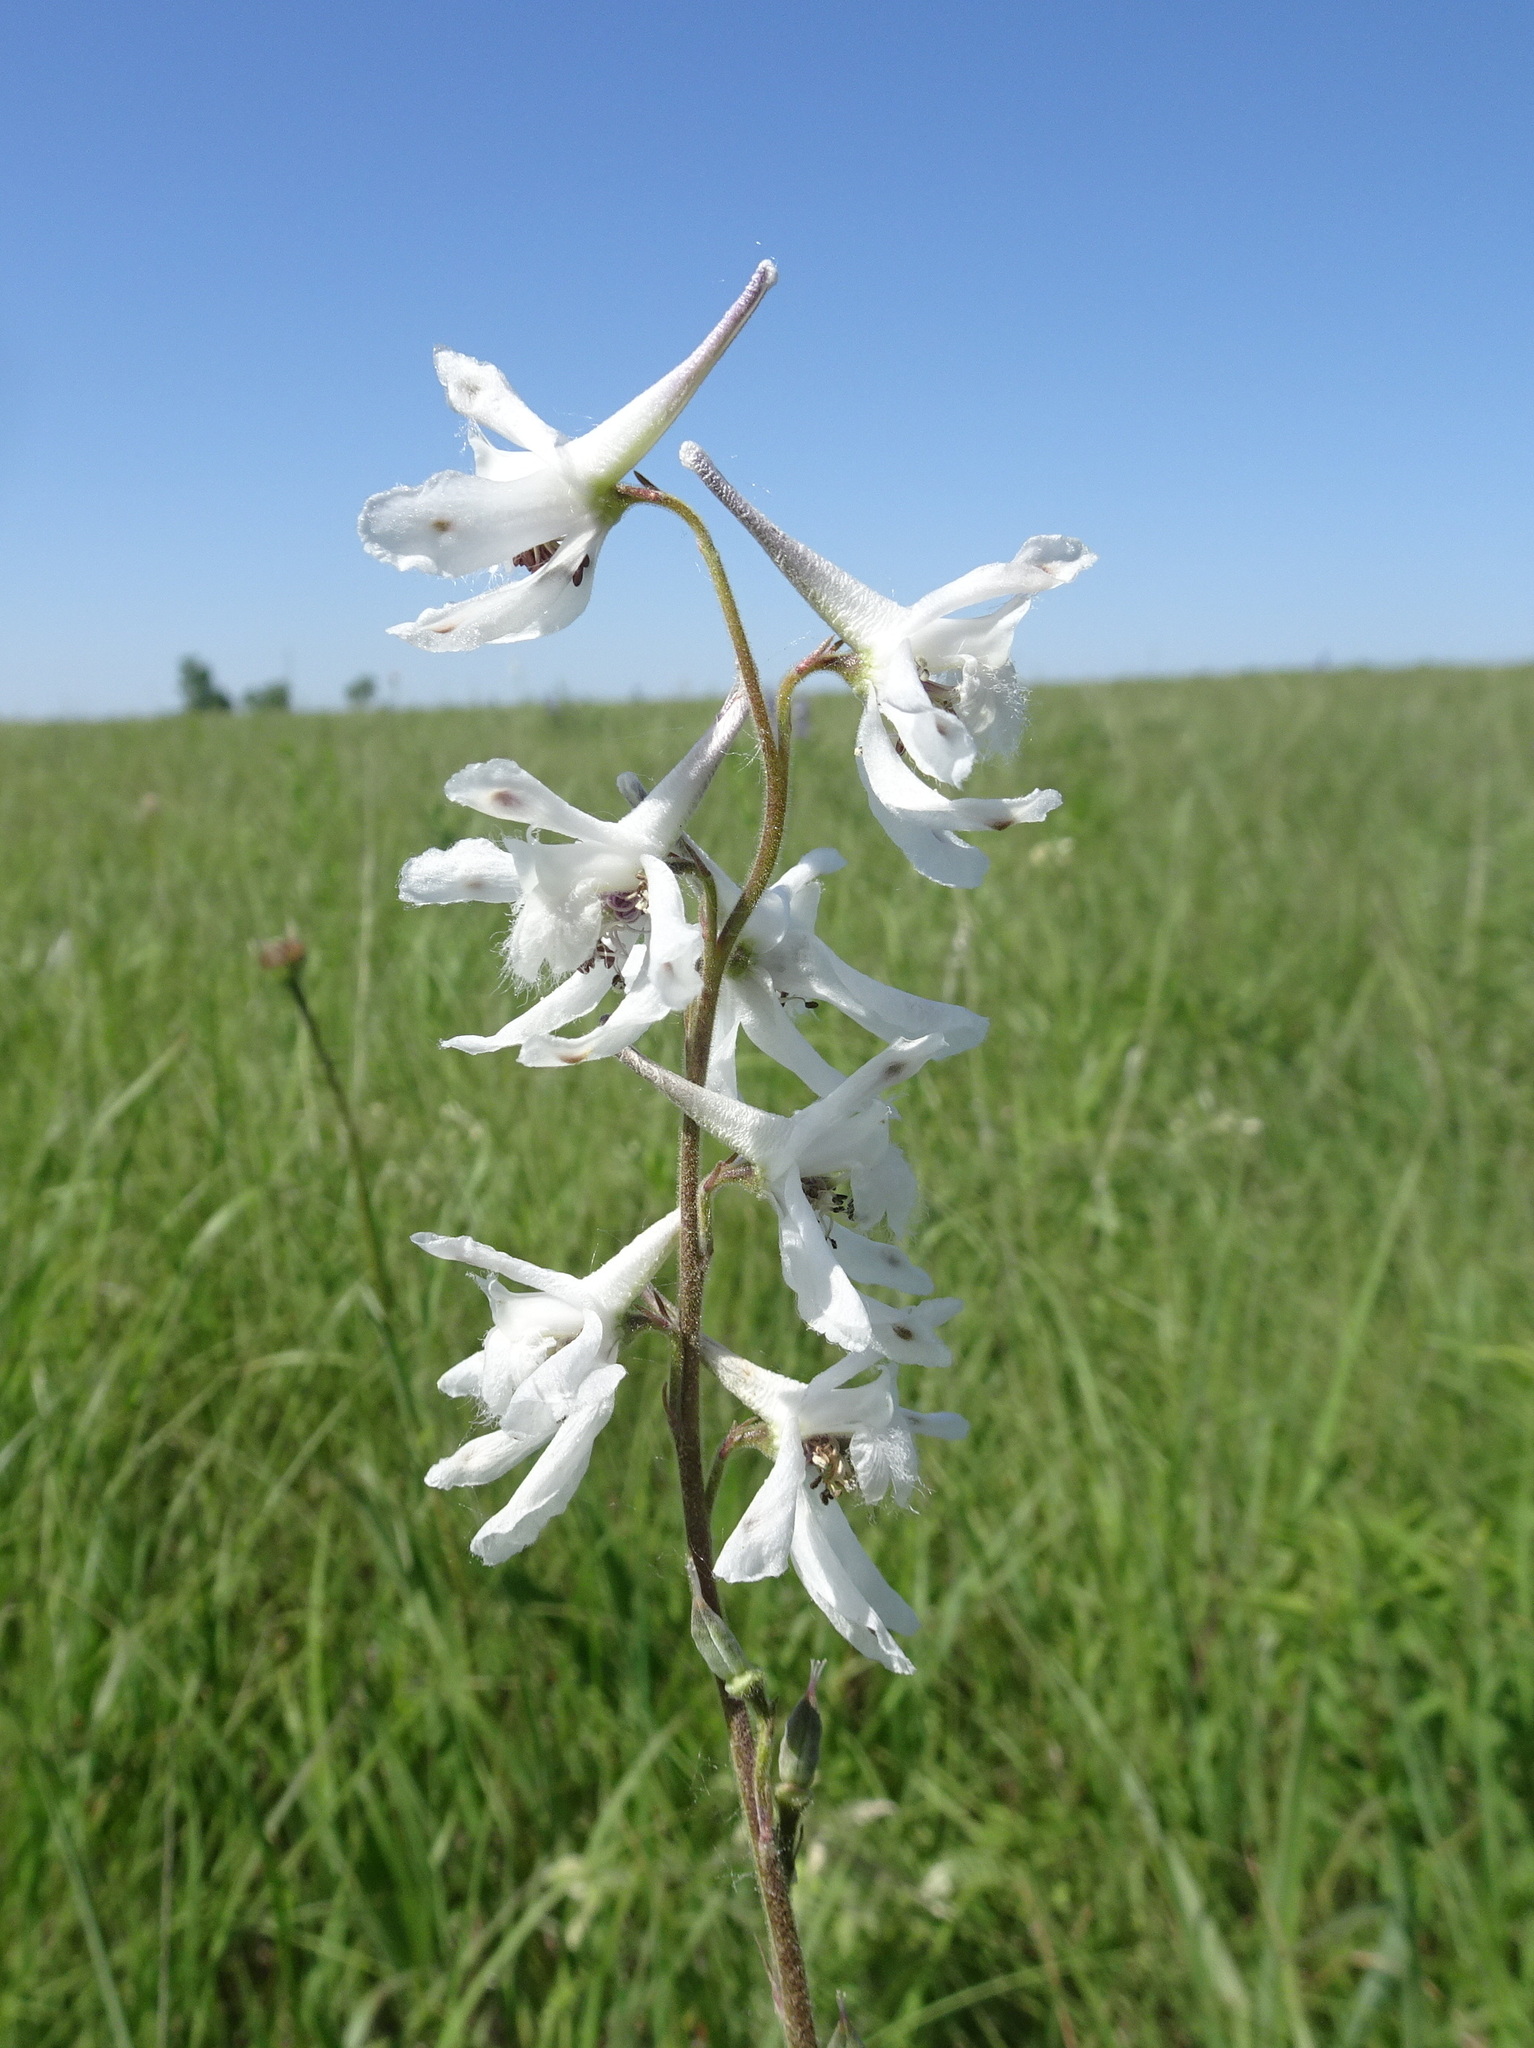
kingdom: Plantae
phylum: Tracheophyta
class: Magnoliopsida
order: Ranunculales
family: Ranunculaceae
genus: Delphinium
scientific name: Delphinium carolinianum
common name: Carolina larkspur
